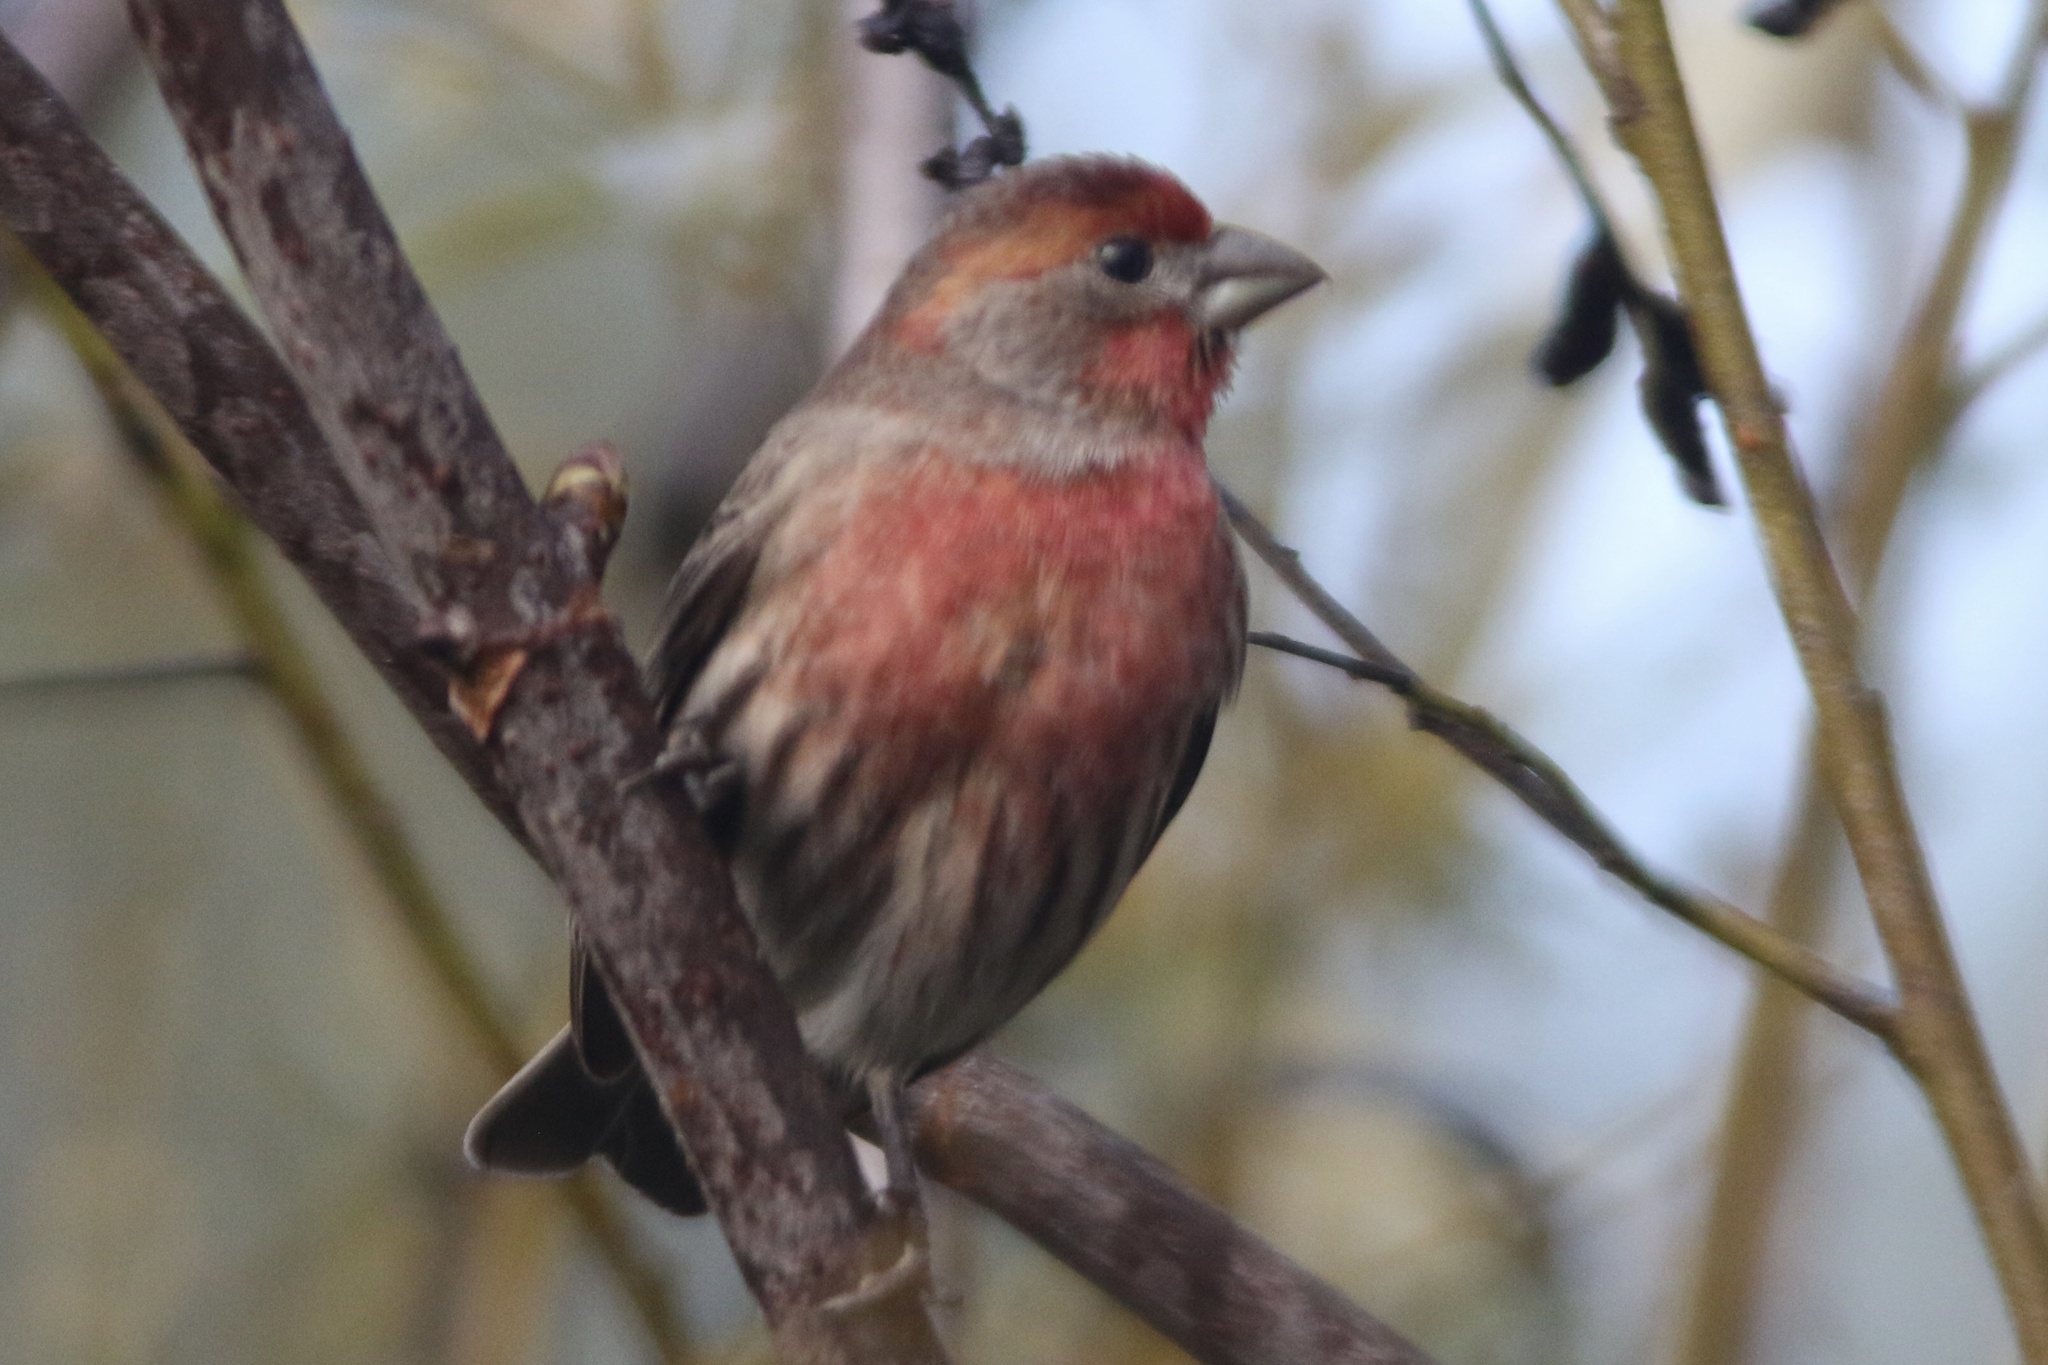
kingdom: Animalia
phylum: Chordata
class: Aves
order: Passeriformes
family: Fringillidae
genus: Haemorhous
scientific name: Haemorhous mexicanus
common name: House finch
